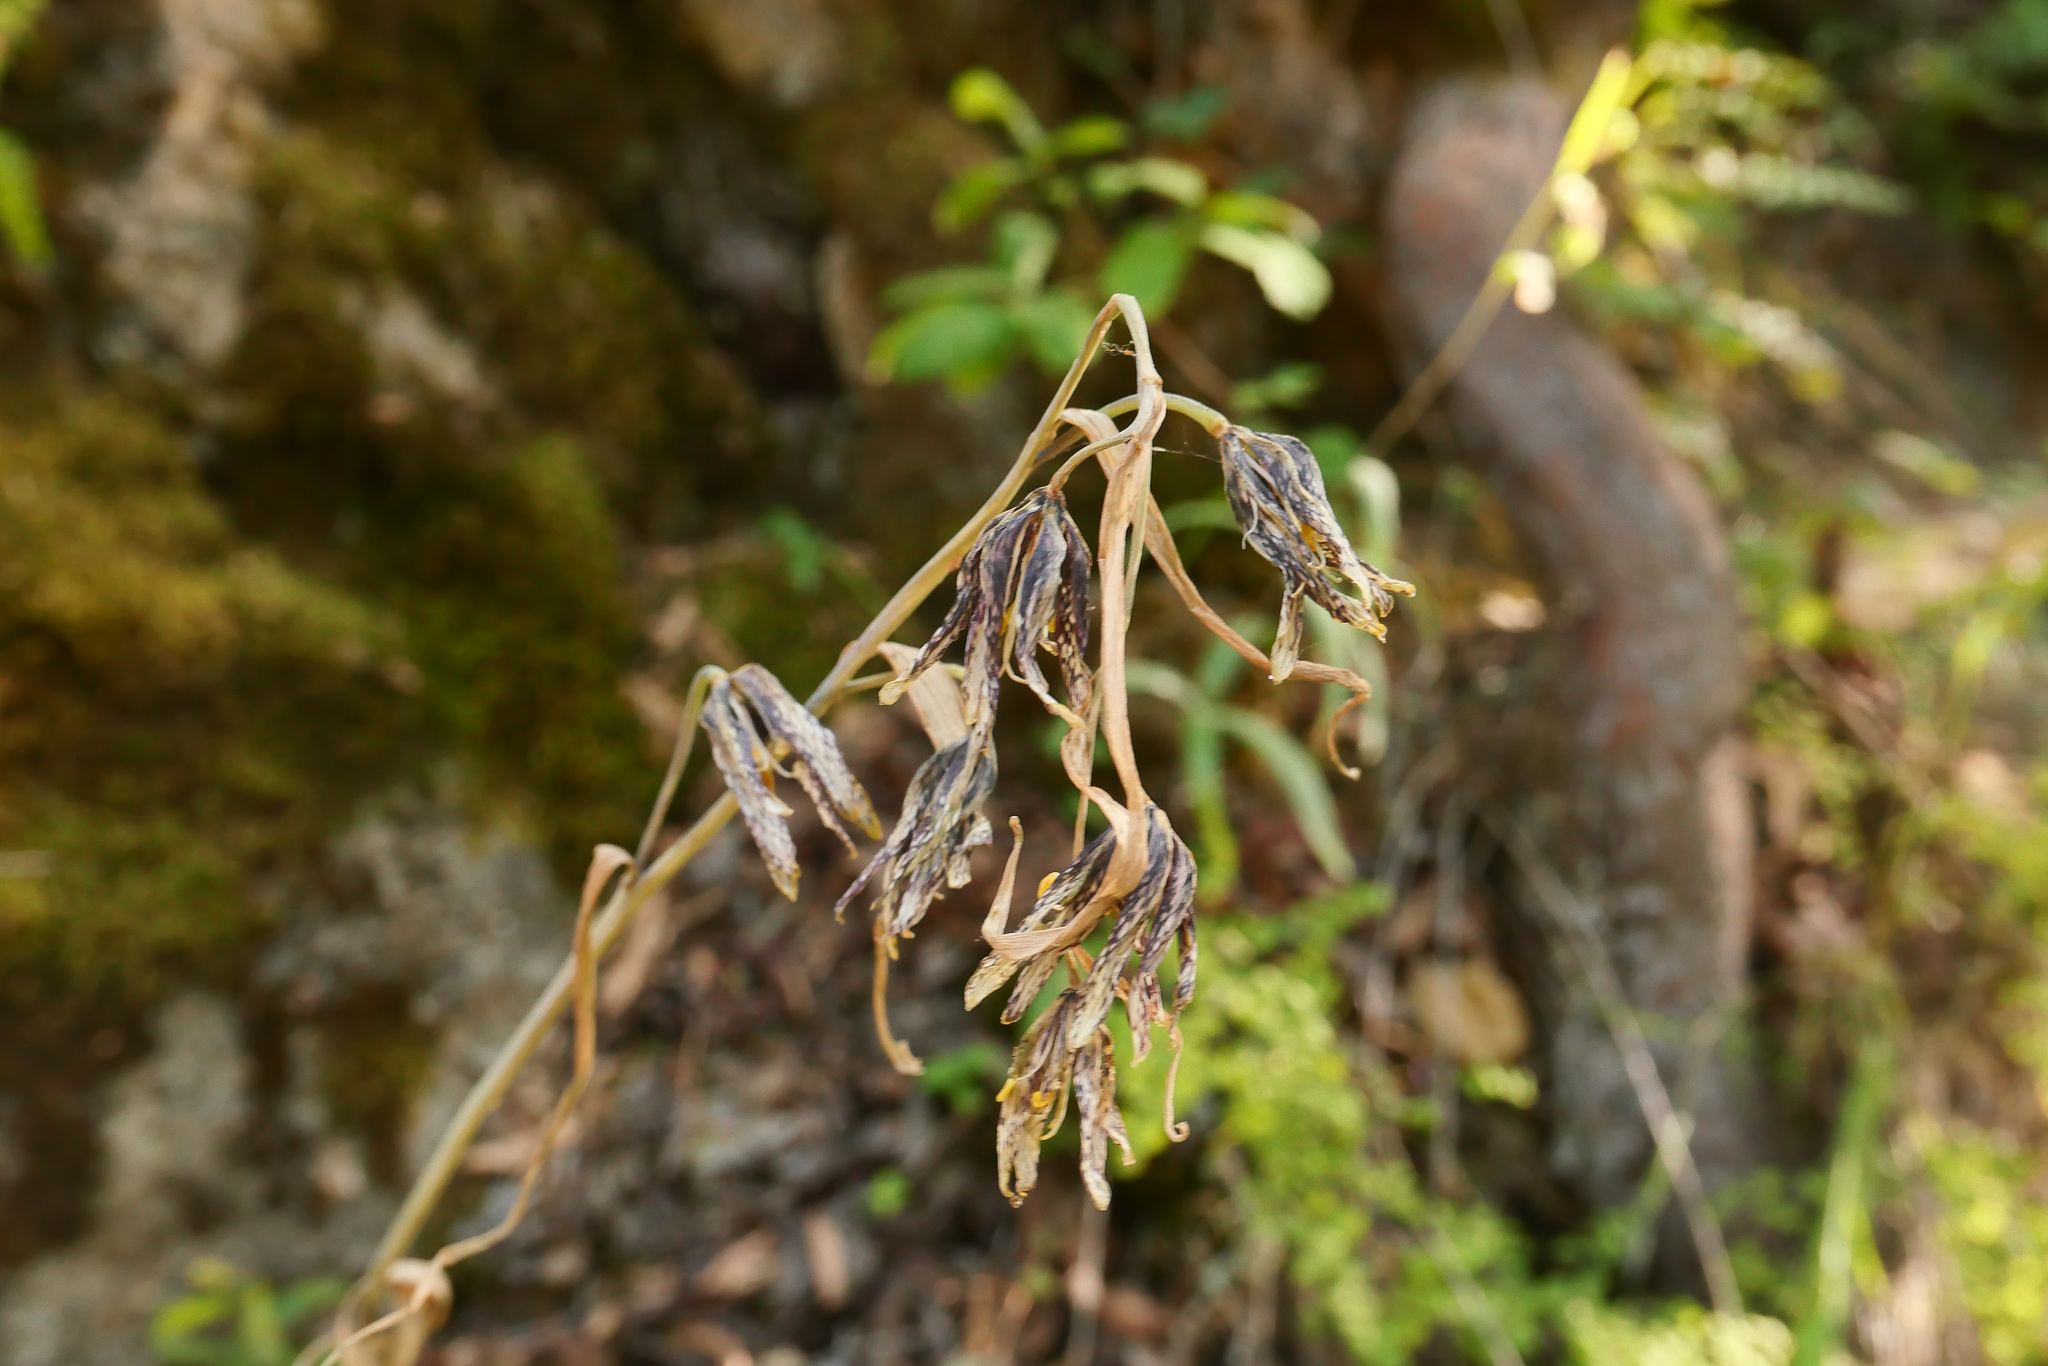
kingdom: Plantae
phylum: Tracheophyta
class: Liliopsida
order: Liliales
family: Liliaceae
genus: Fritillaria
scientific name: Fritillaria affinis
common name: Ojai fritillary
